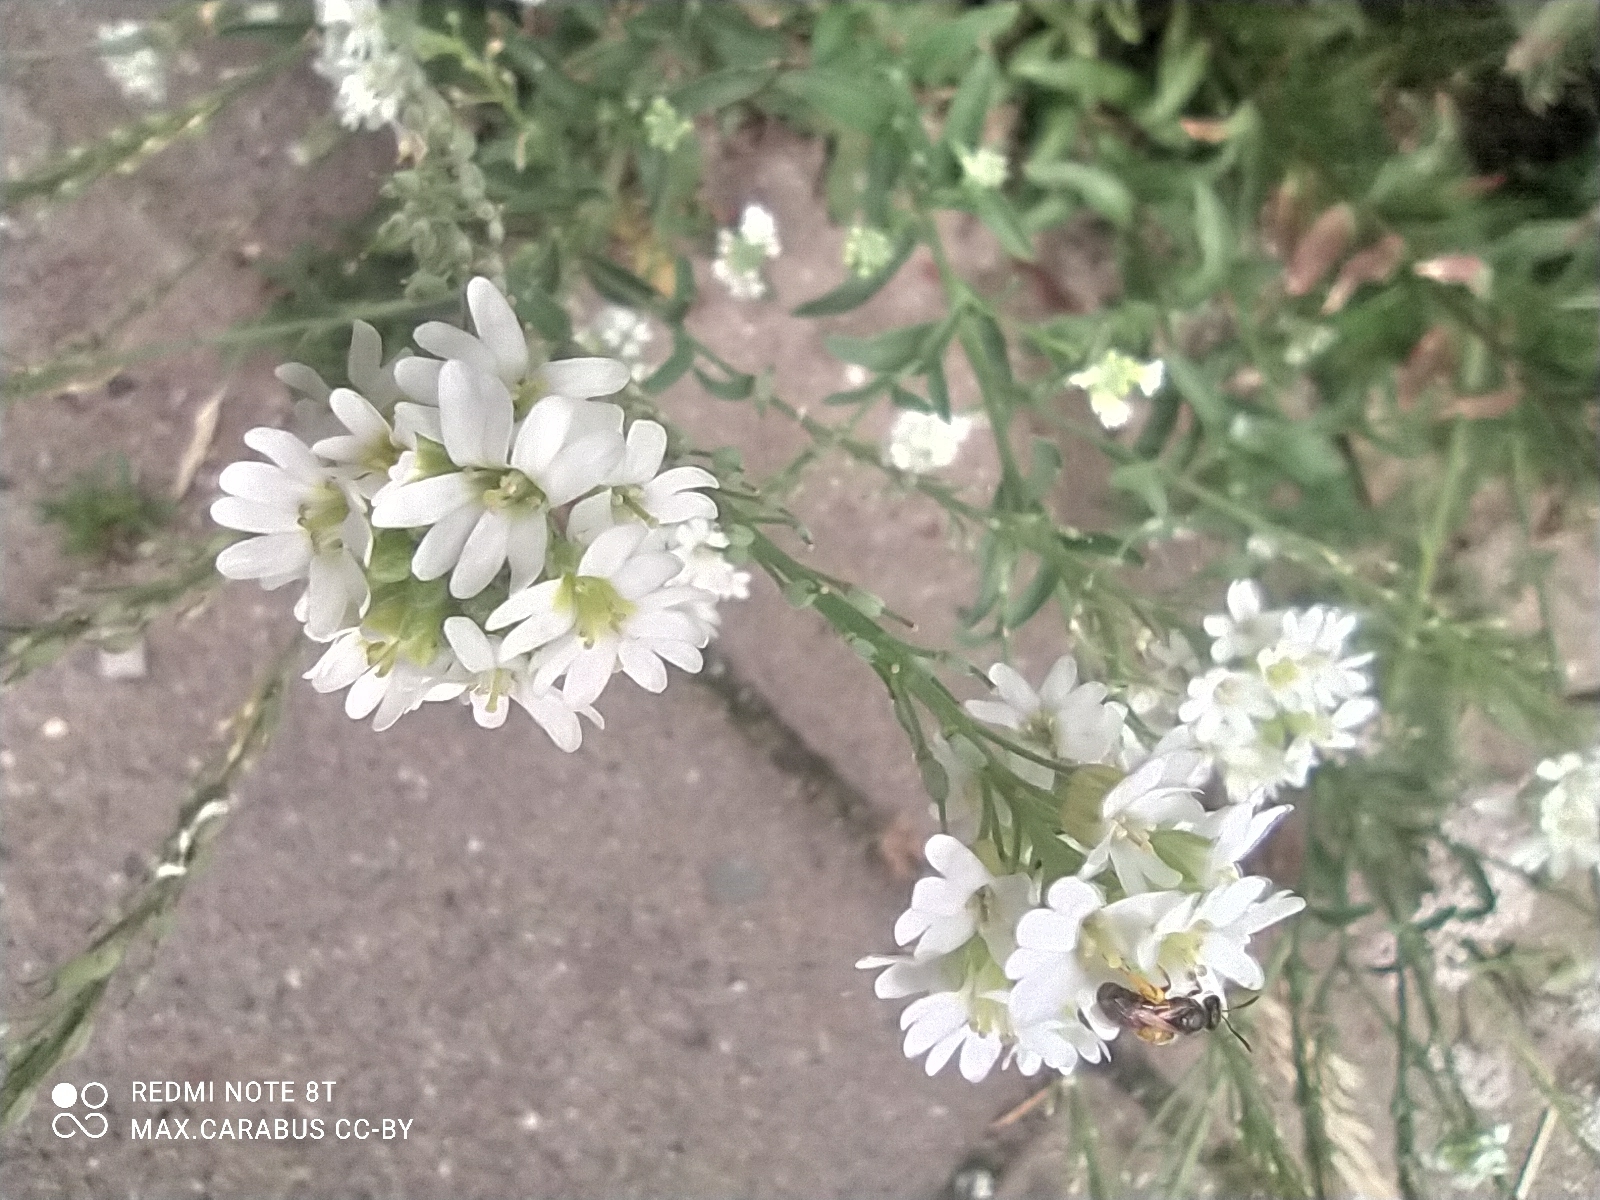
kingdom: Plantae
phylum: Tracheophyta
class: Magnoliopsida
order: Brassicales
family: Brassicaceae
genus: Berteroa
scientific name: Berteroa incana
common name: Hoary alison
